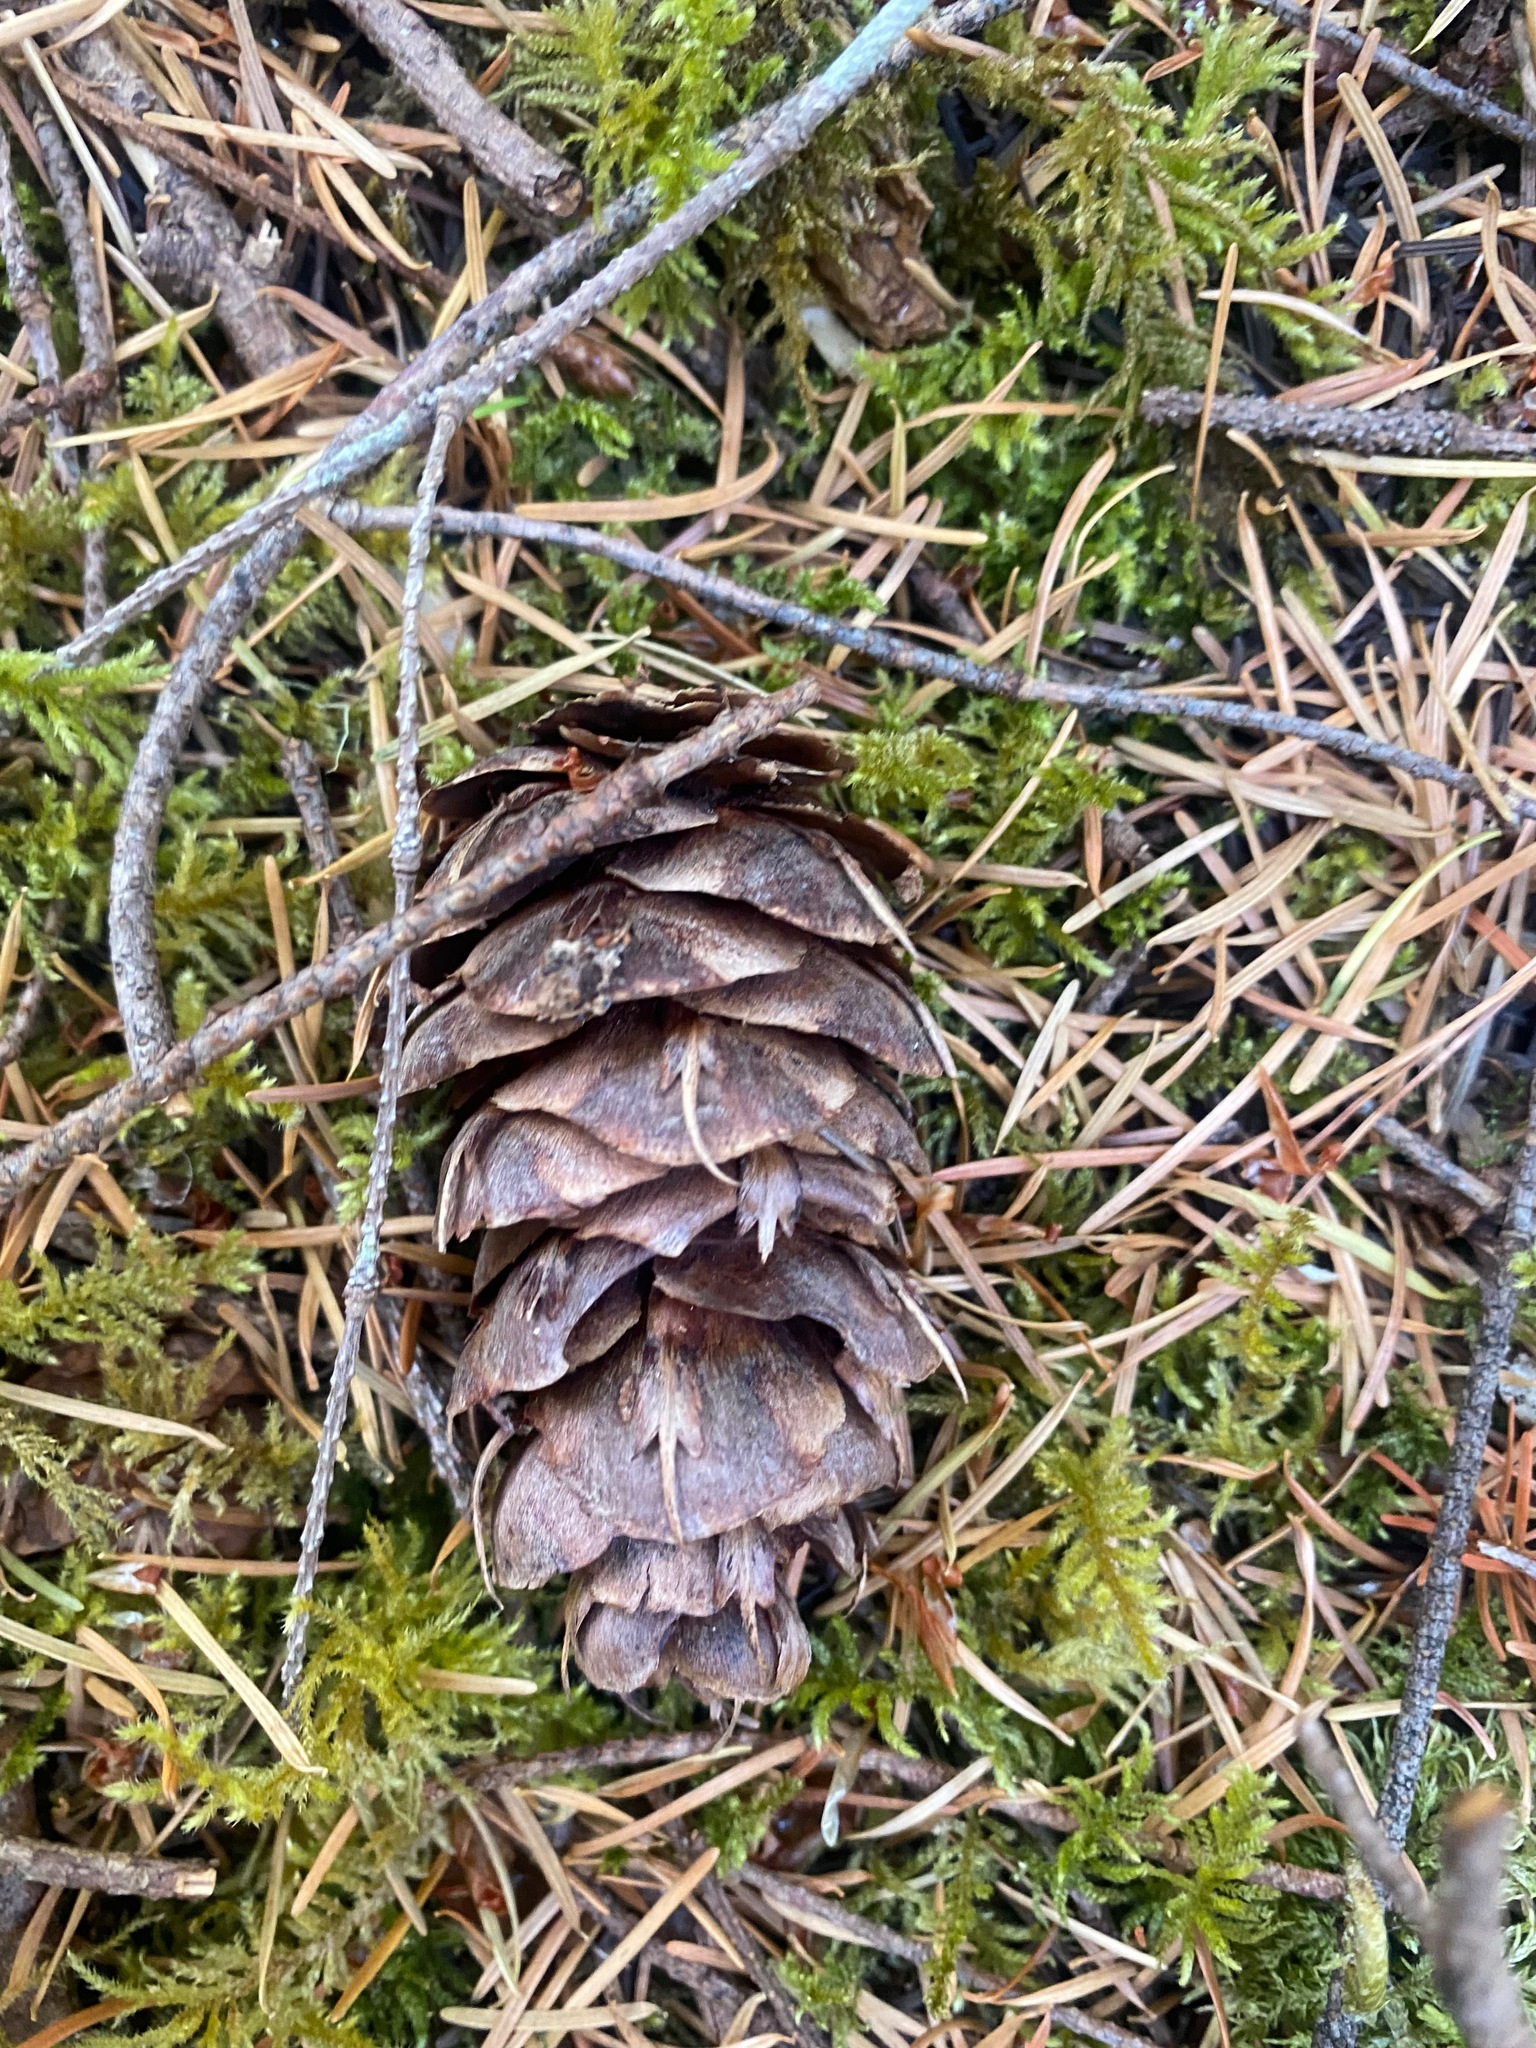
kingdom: Plantae
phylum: Tracheophyta
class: Pinopsida
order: Pinales
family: Pinaceae
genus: Pseudotsuga
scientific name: Pseudotsuga menziesii
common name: Douglas fir
